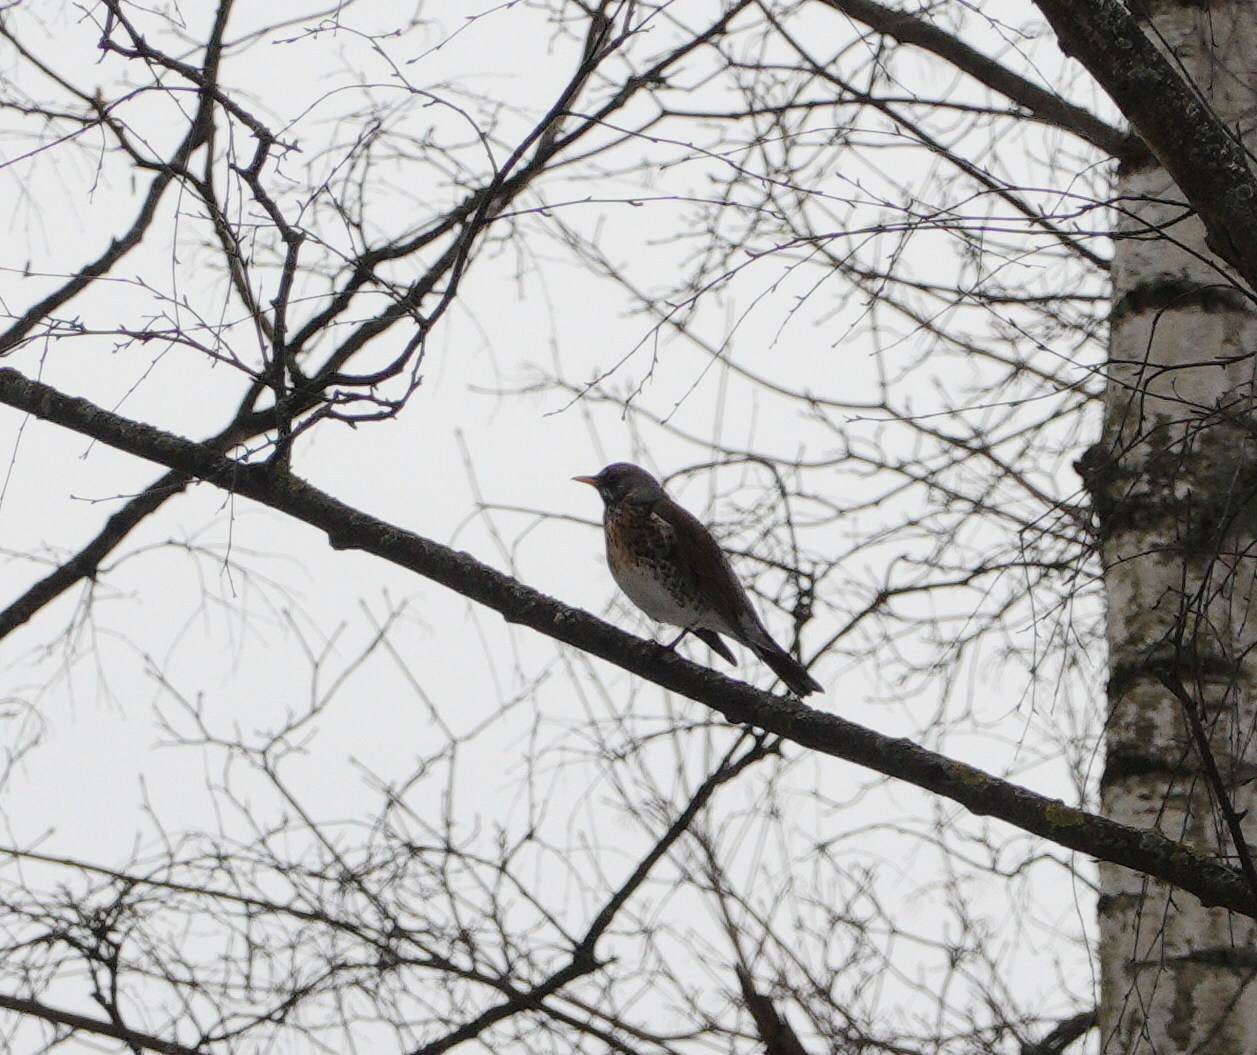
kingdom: Animalia
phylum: Chordata
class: Aves
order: Passeriformes
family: Turdidae
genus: Turdus
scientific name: Turdus pilaris
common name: Fieldfare
